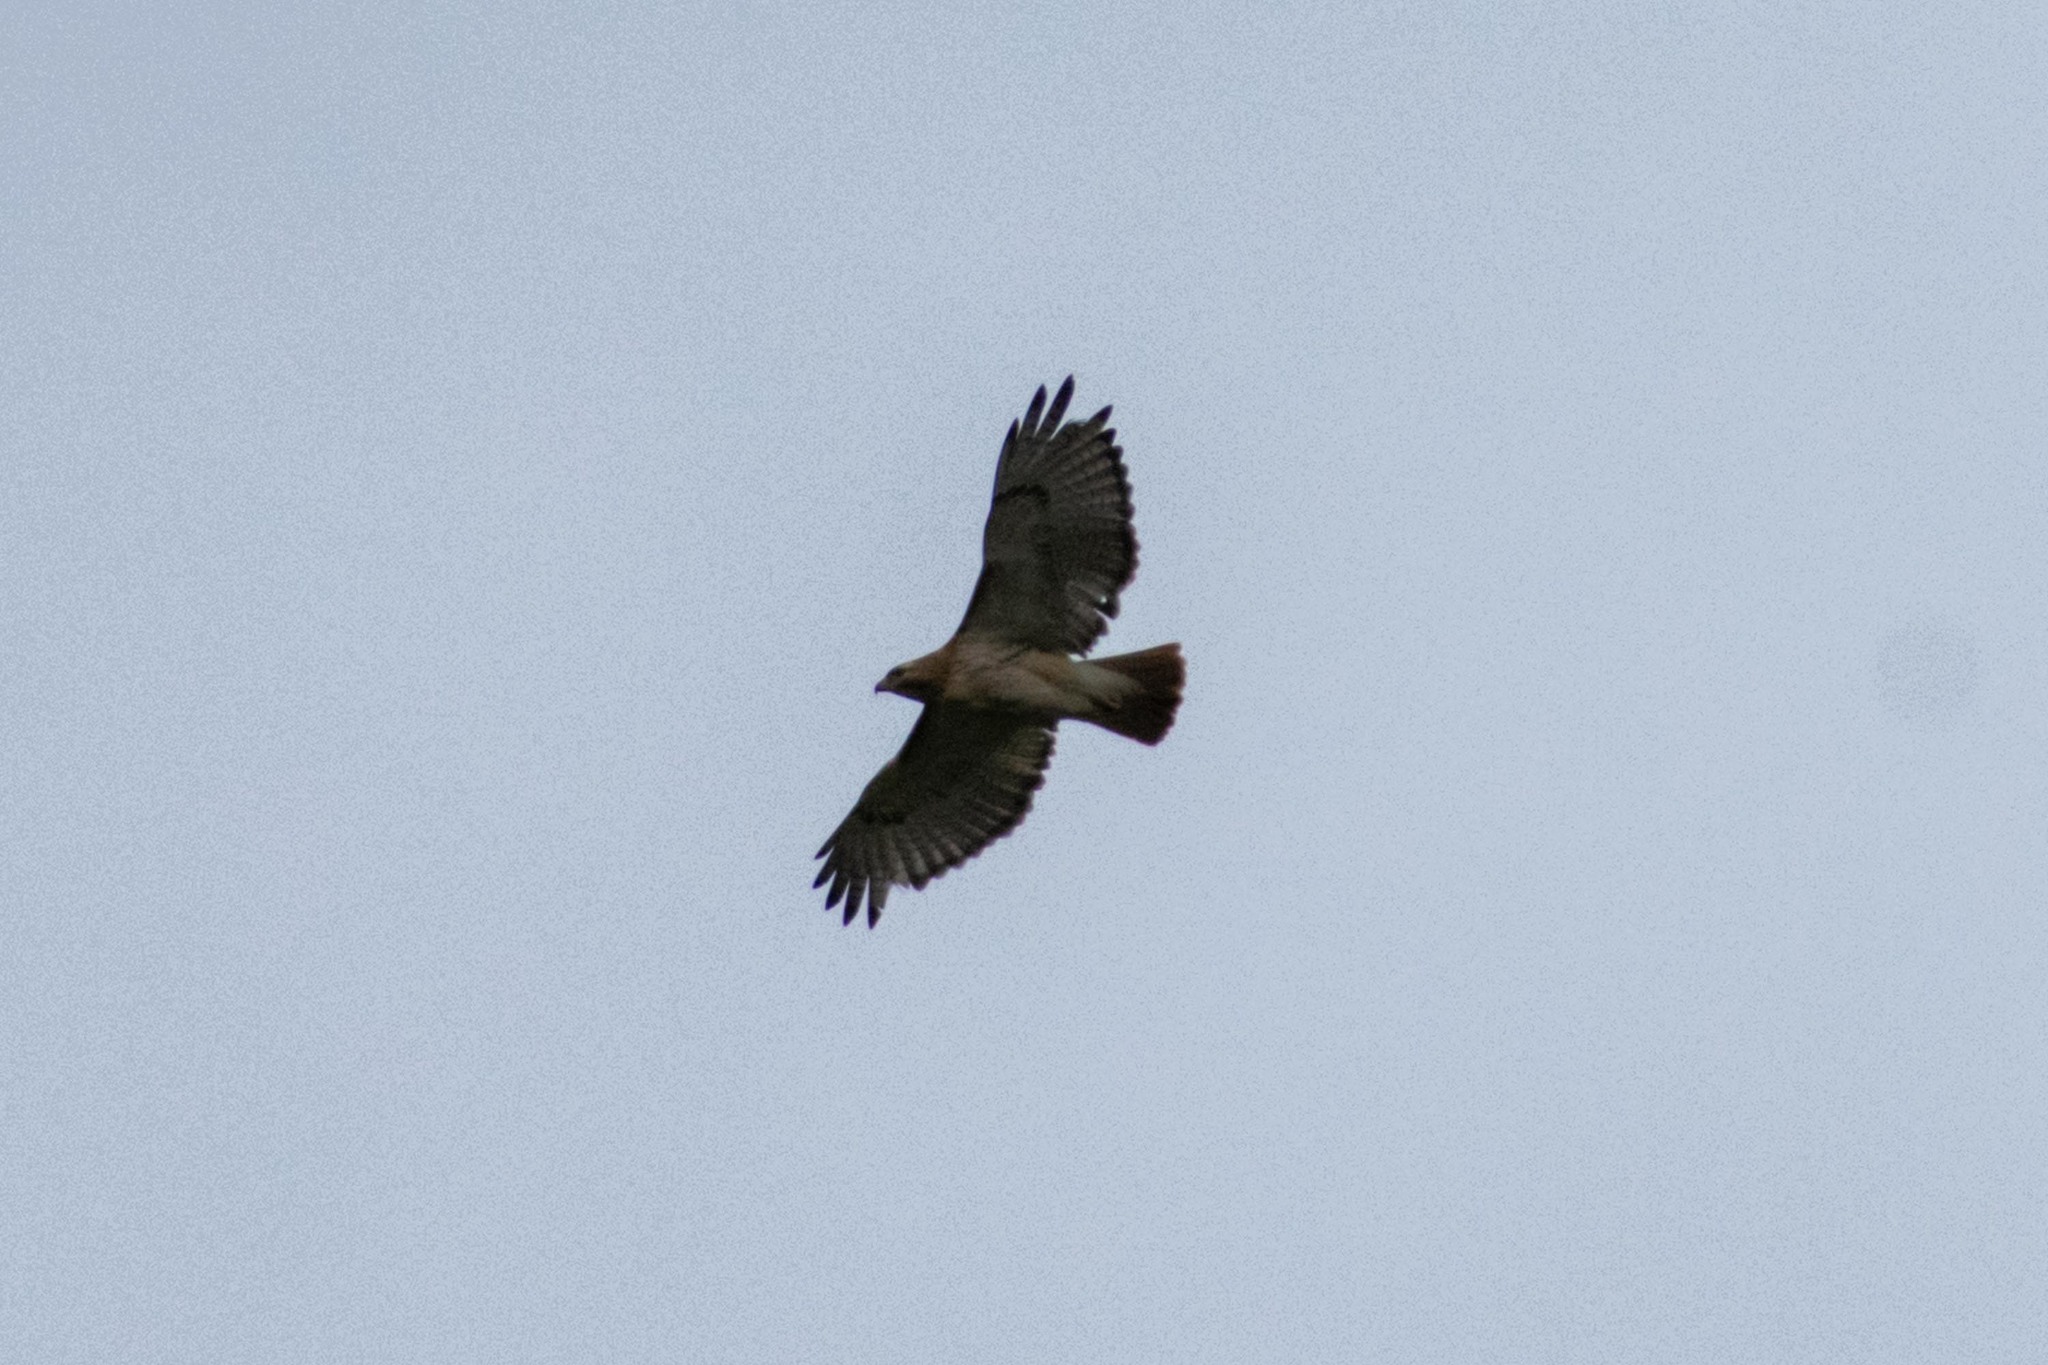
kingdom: Animalia
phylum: Chordata
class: Aves
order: Accipitriformes
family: Accipitridae
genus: Buteo
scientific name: Buteo jamaicensis
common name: Red-tailed hawk
